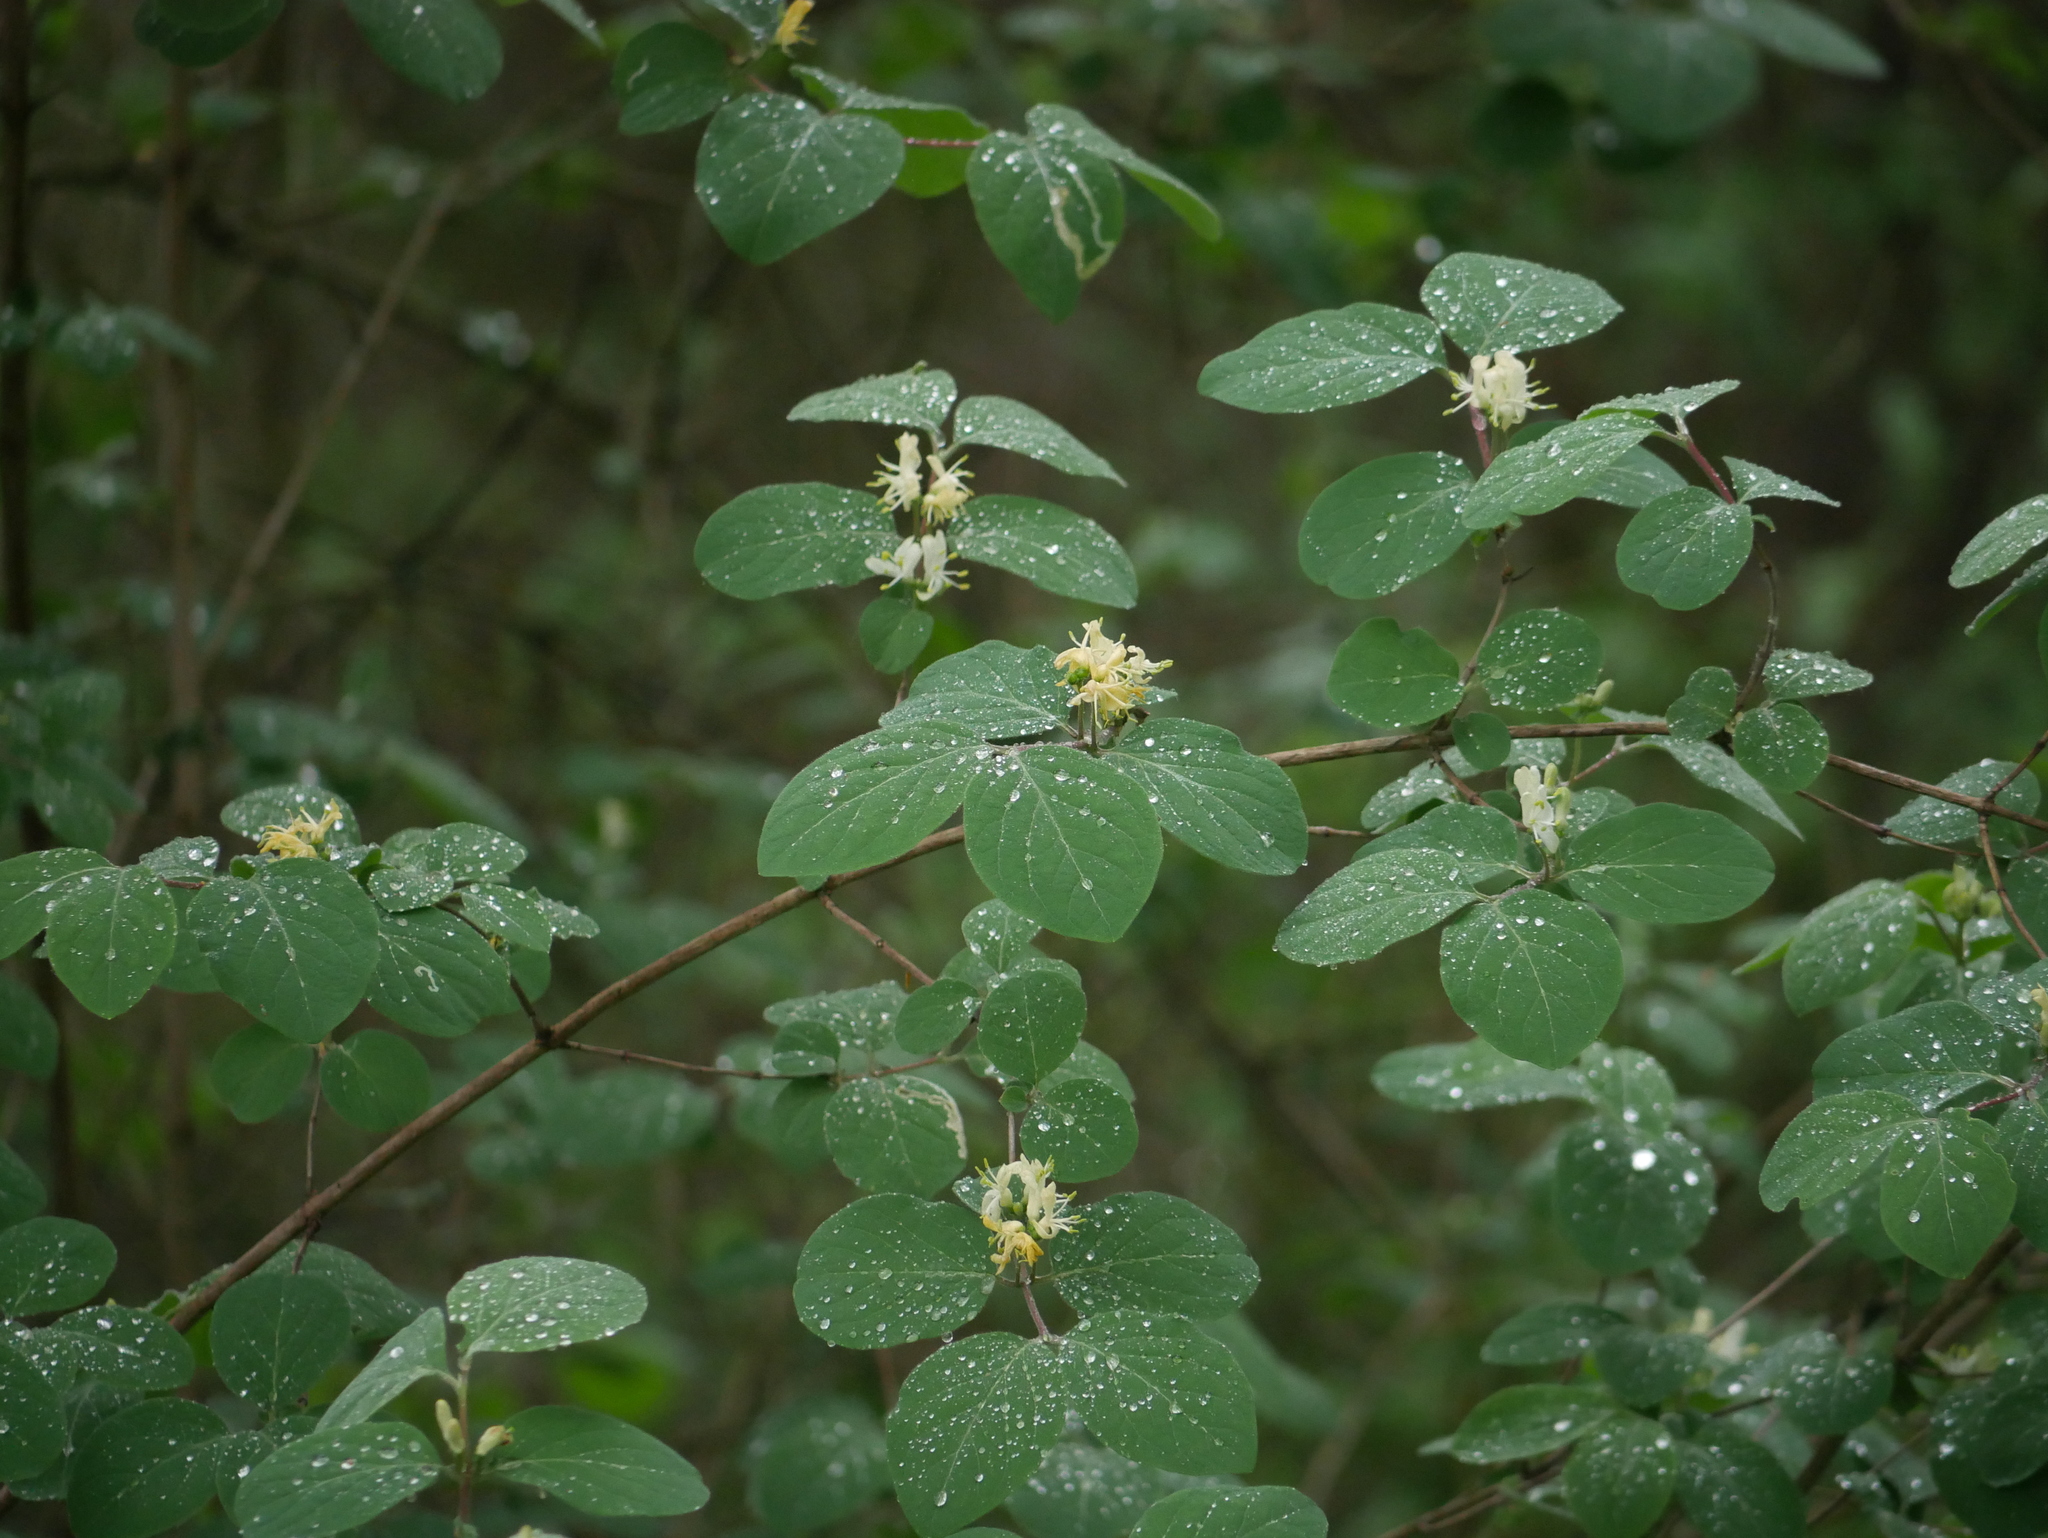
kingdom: Plantae
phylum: Tracheophyta
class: Magnoliopsida
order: Dipsacales
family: Caprifoliaceae
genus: Lonicera
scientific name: Lonicera xylosteum
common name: Fly honeysuckle
